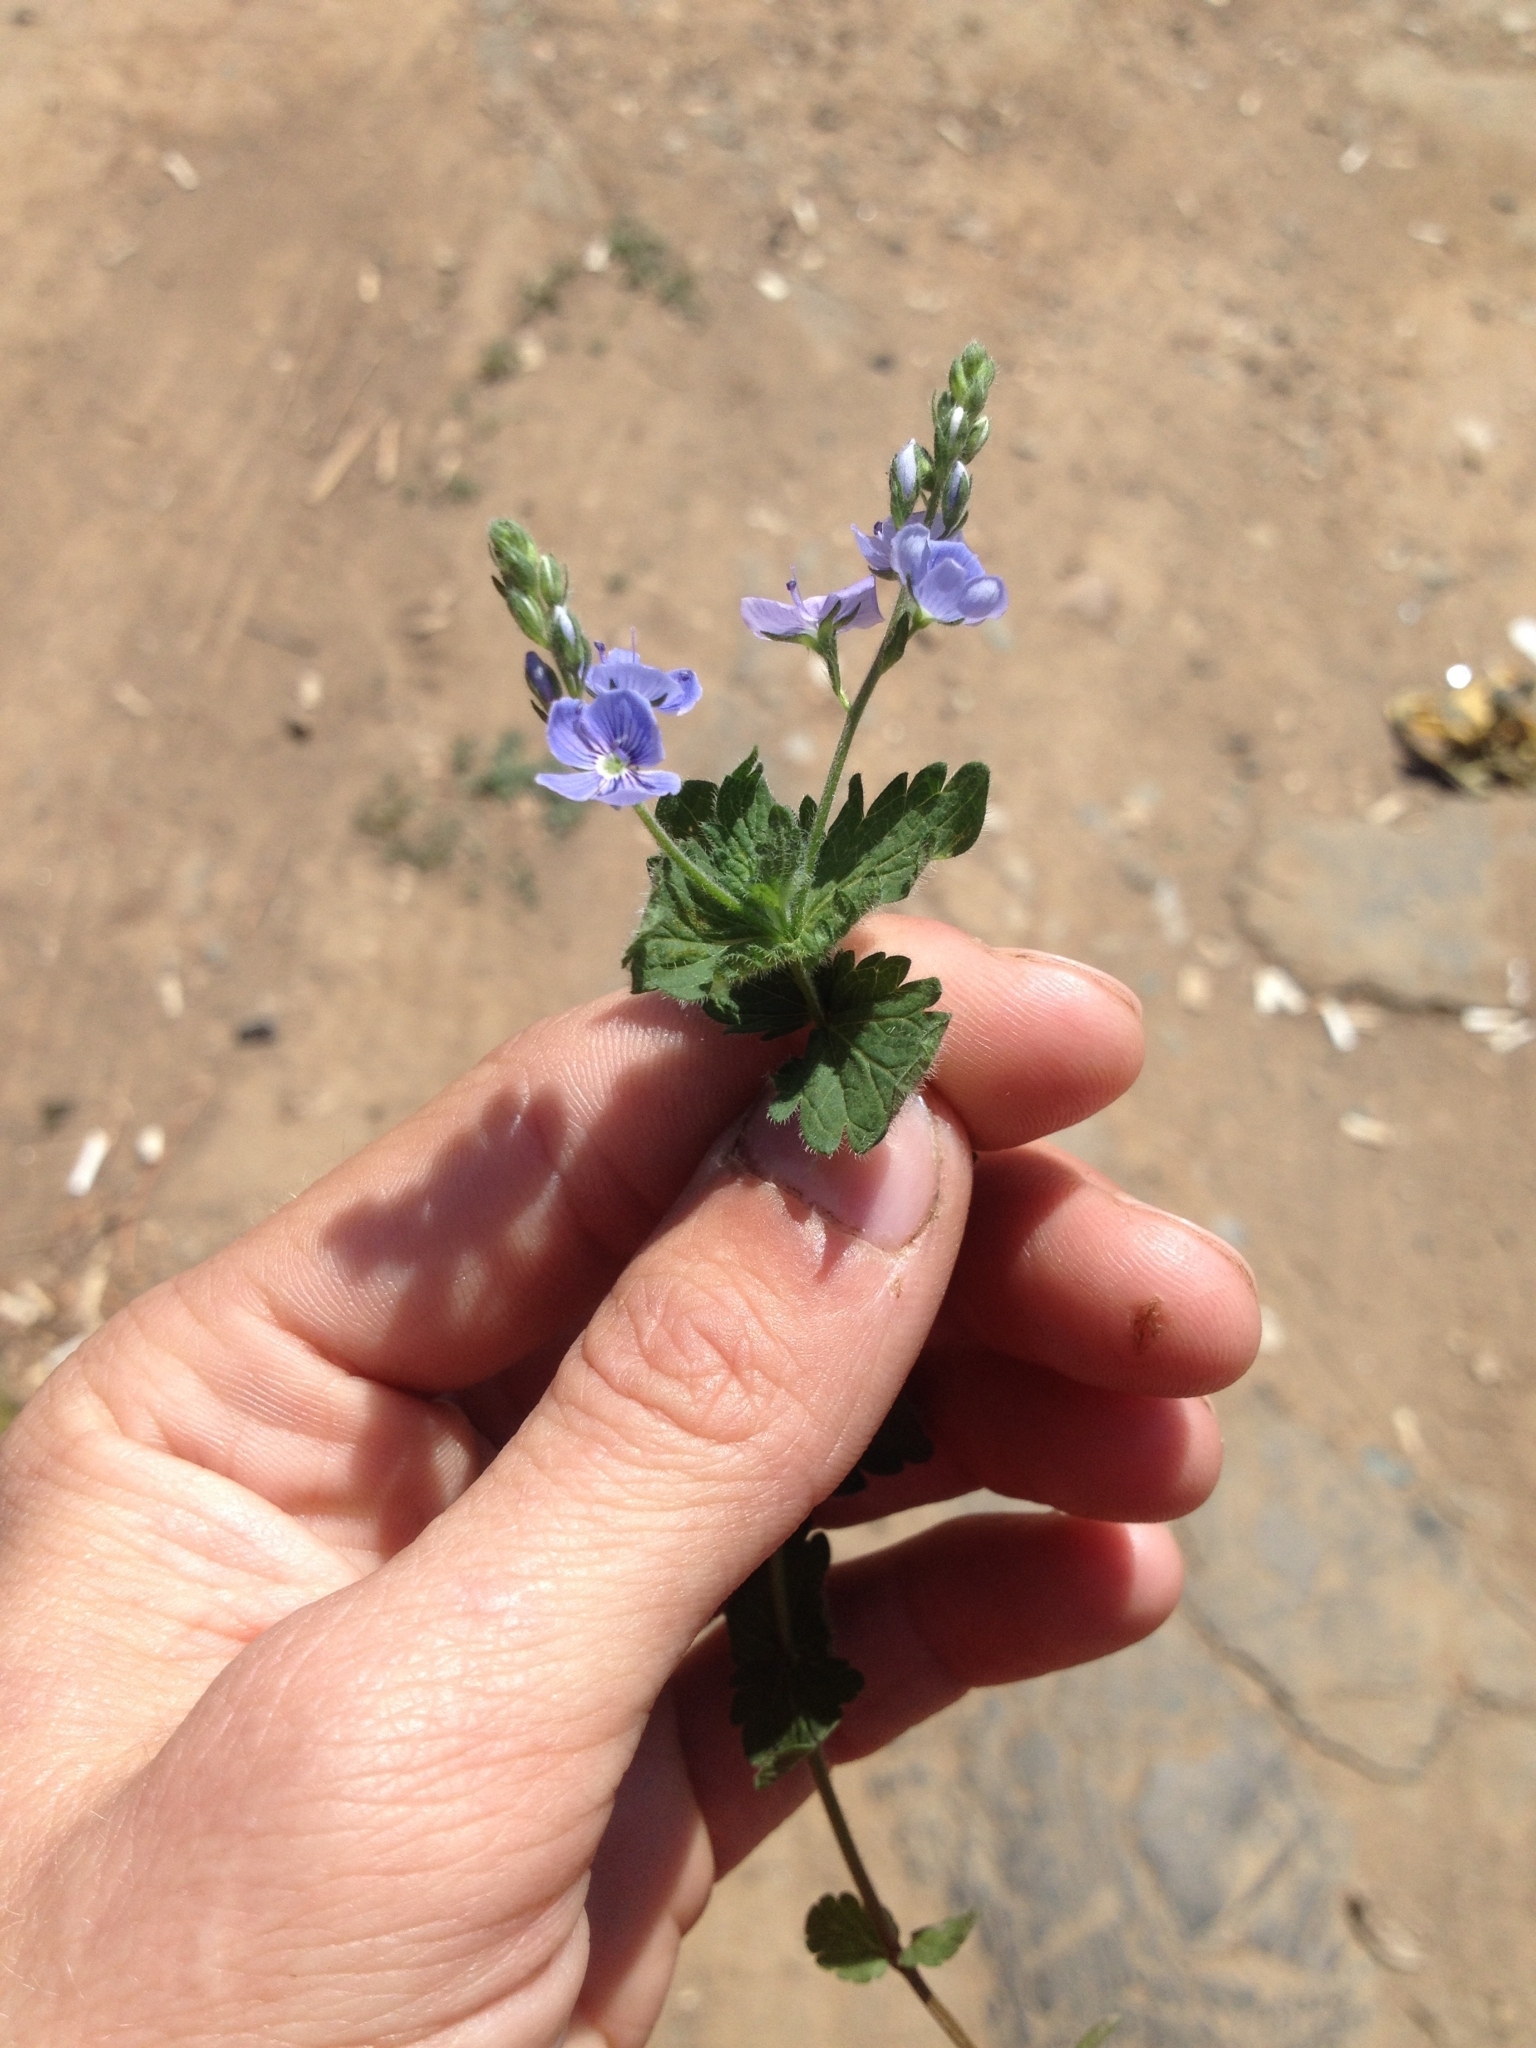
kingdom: Plantae
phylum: Tracheophyta
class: Magnoliopsida
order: Lamiales
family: Plantaginaceae
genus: Veronica
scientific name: Veronica chamaedrys
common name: Germander speedwell
